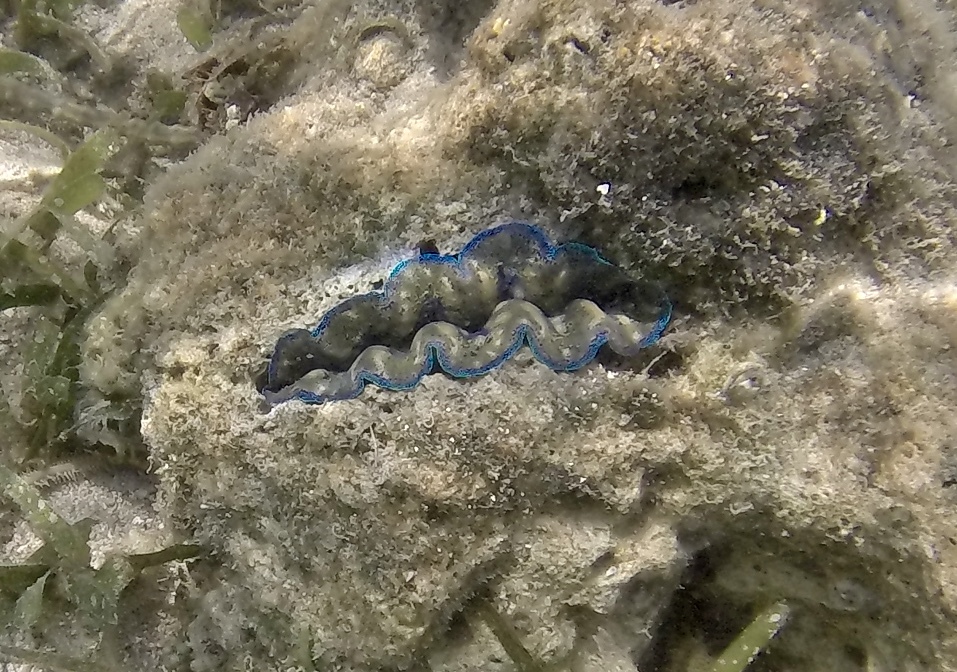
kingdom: Animalia
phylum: Mollusca
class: Bivalvia
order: Cardiida
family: Cardiidae
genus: Tridacna
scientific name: Tridacna crocea
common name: Boring clam
